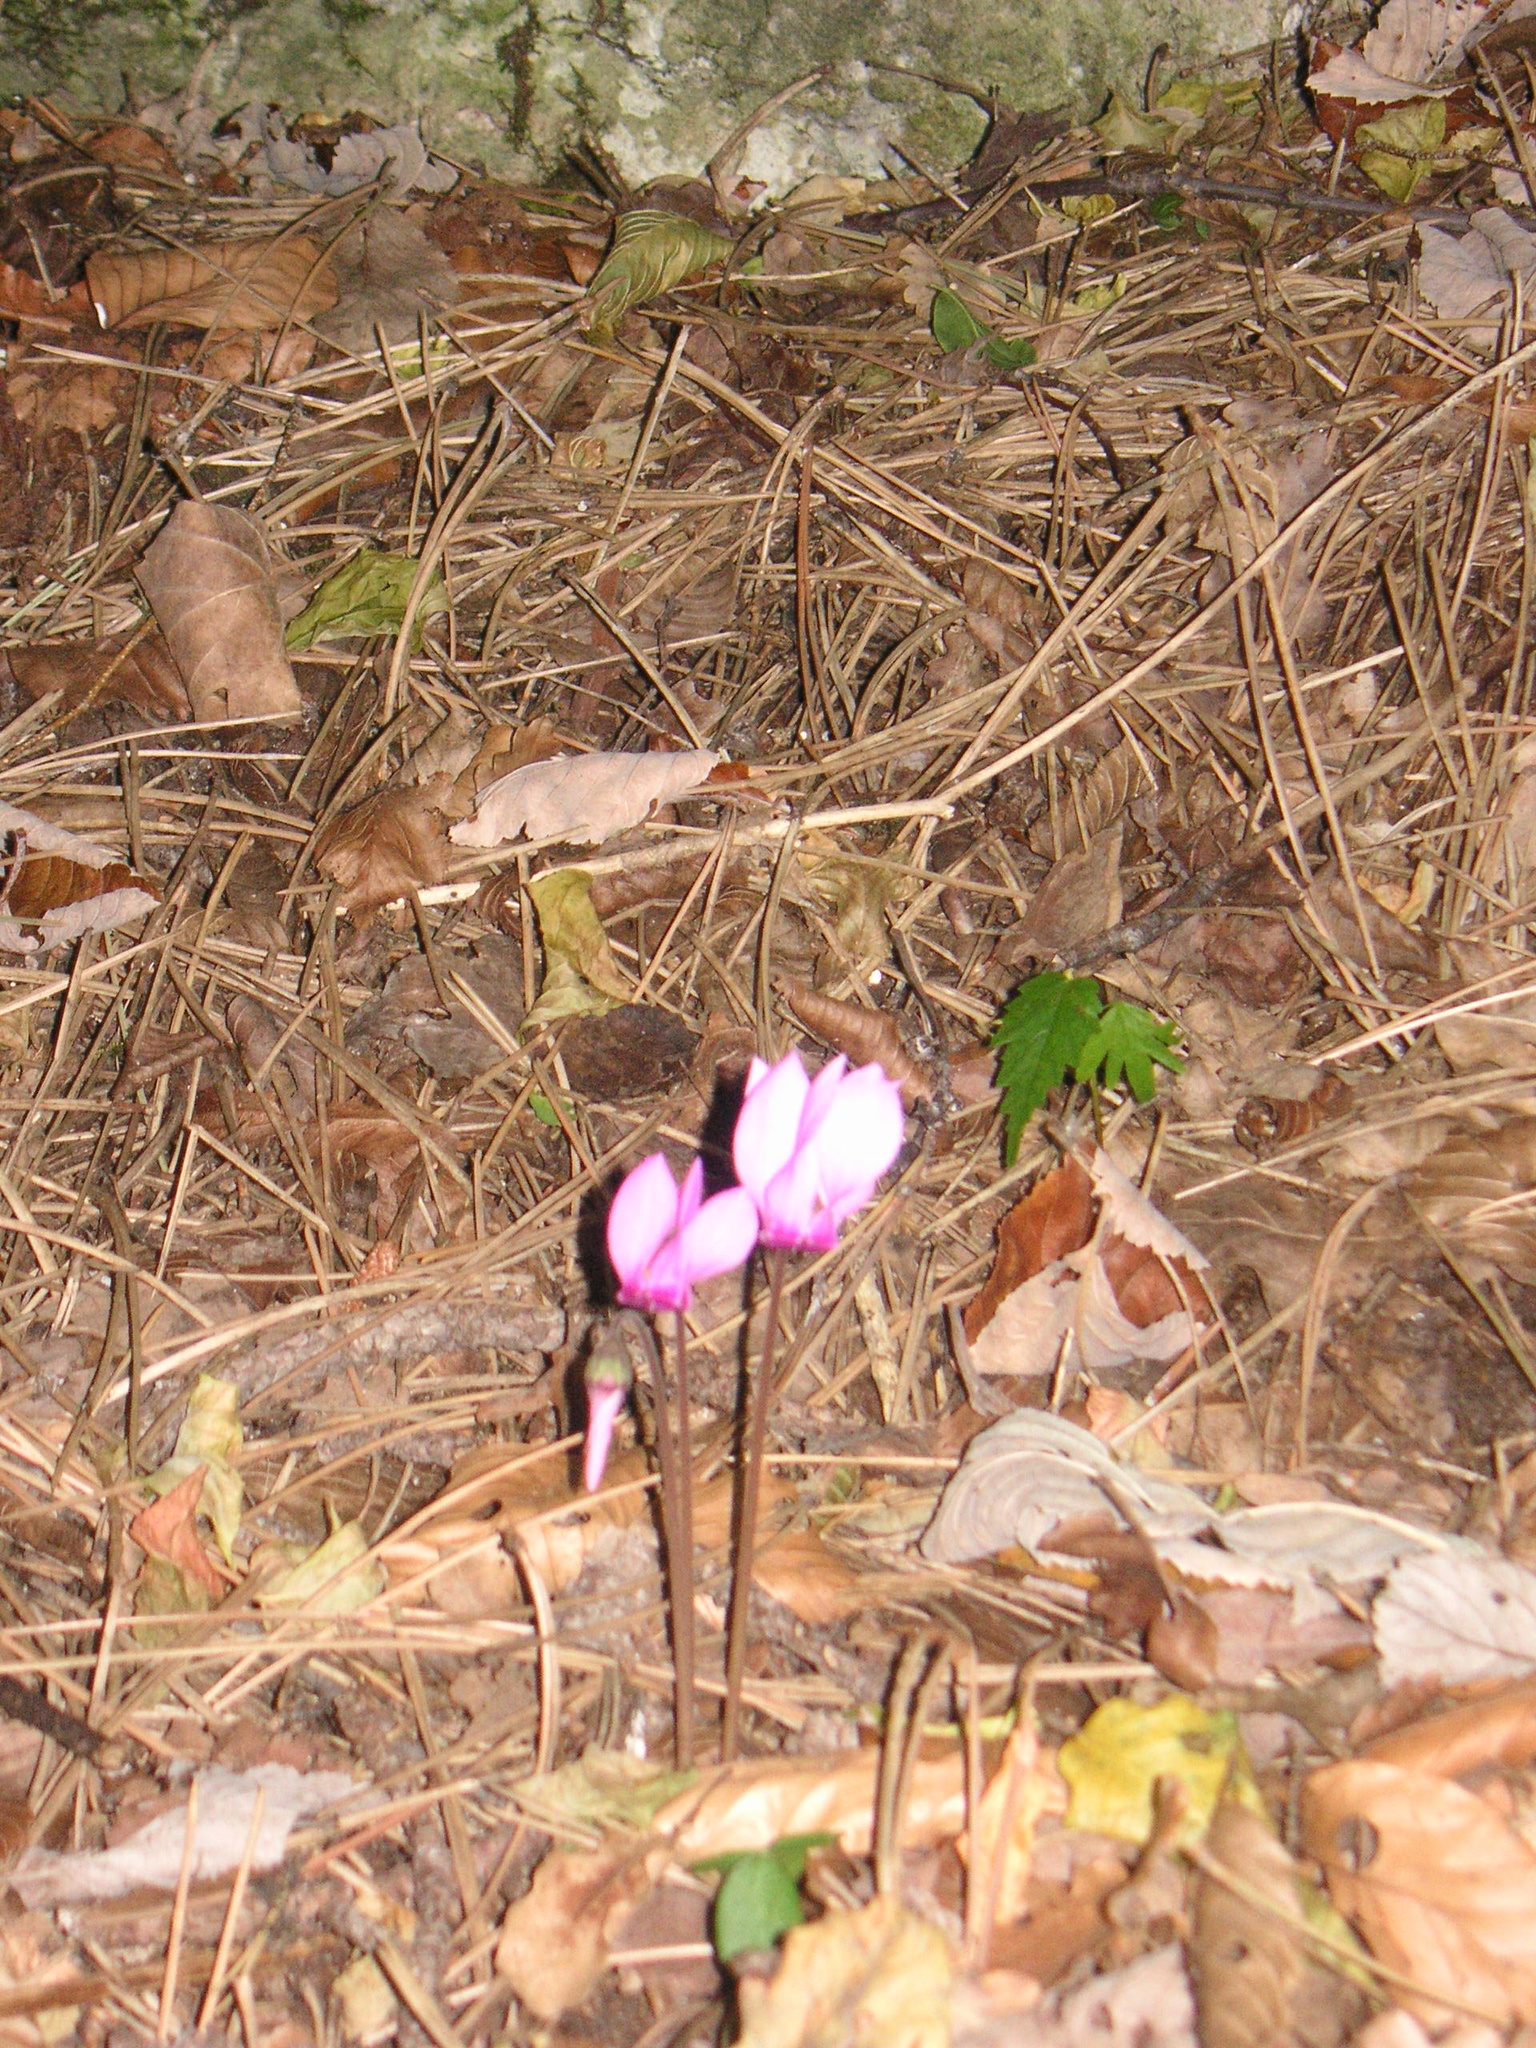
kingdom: Plantae
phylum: Tracheophyta
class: Magnoliopsida
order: Ericales
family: Primulaceae
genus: Cyclamen
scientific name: Cyclamen purpurascens
